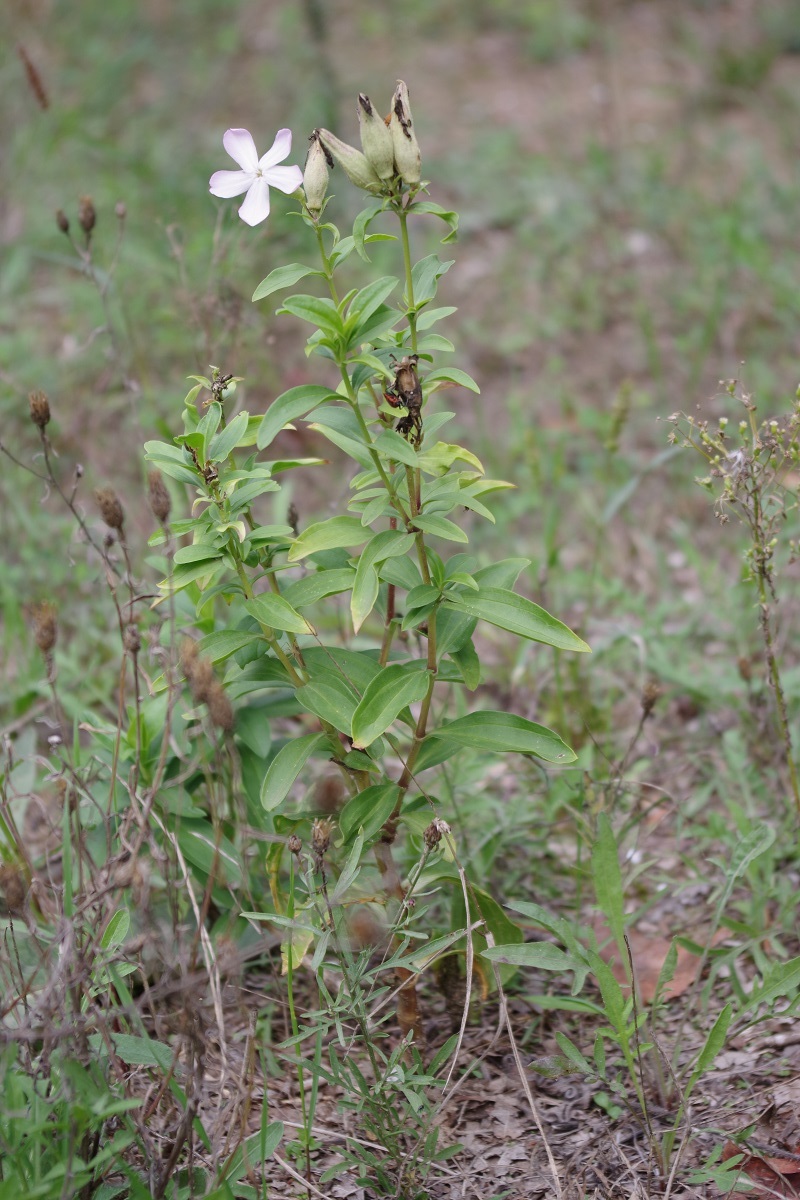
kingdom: Plantae
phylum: Tracheophyta
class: Magnoliopsida
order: Caryophyllales
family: Caryophyllaceae
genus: Saponaria
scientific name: Saponaria officinalis
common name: Soapwort
